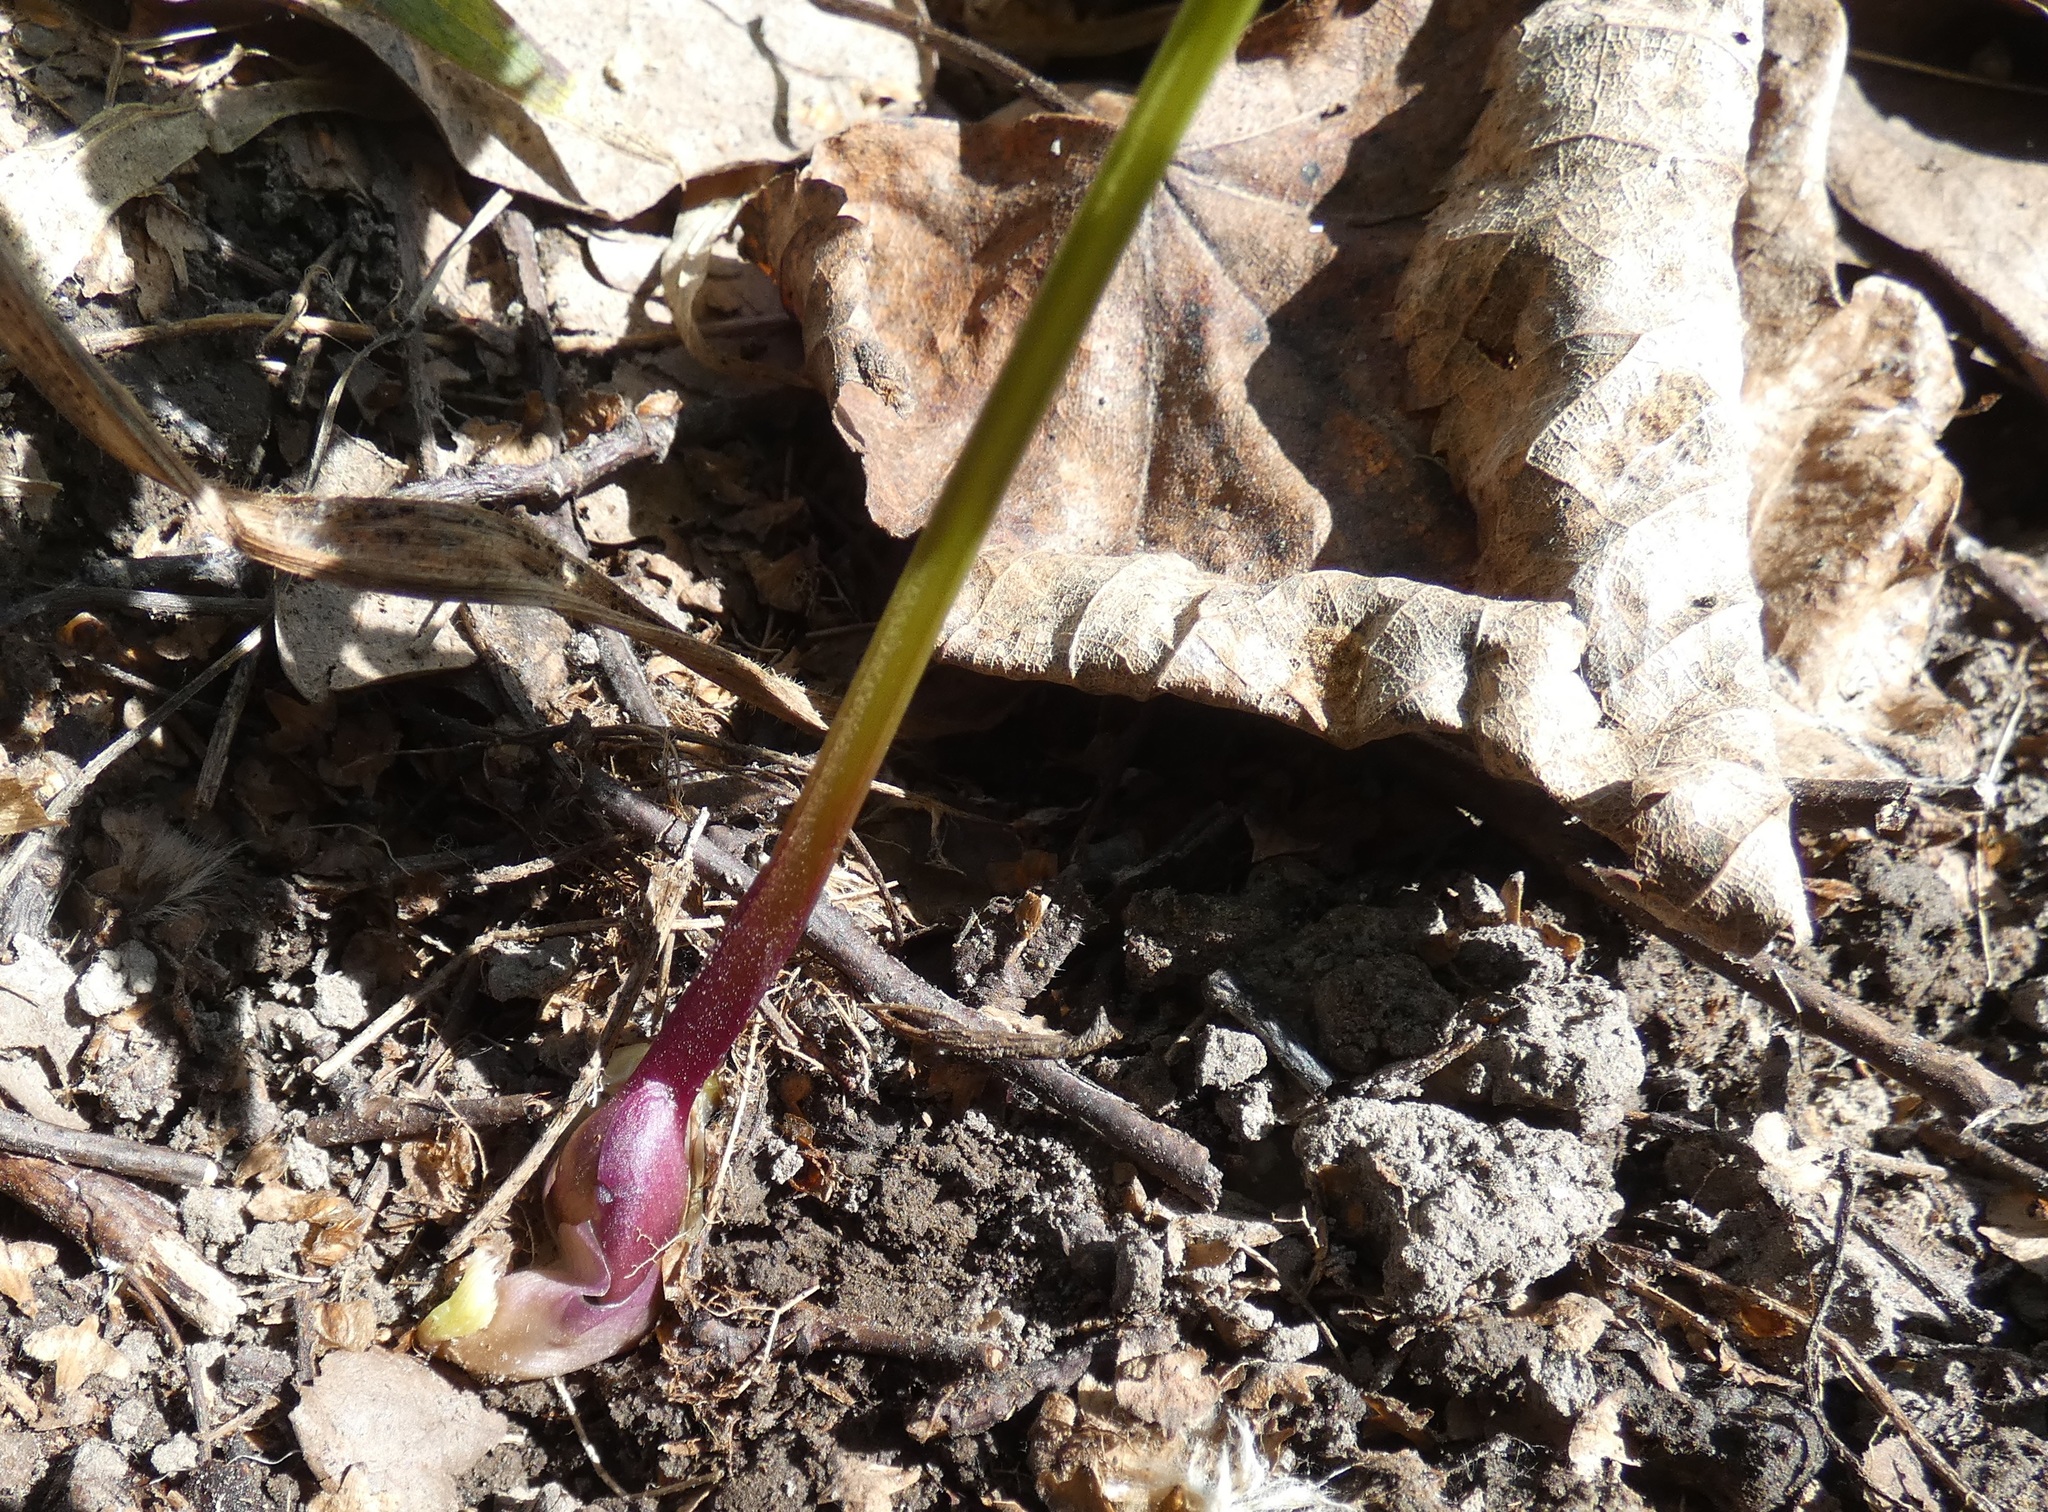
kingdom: Plantae
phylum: Tracheophyta
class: Magnoliopsida
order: Apiales
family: Apiaceae
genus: Aegopodium
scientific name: Aegopodium podagraria
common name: Ground-elder
